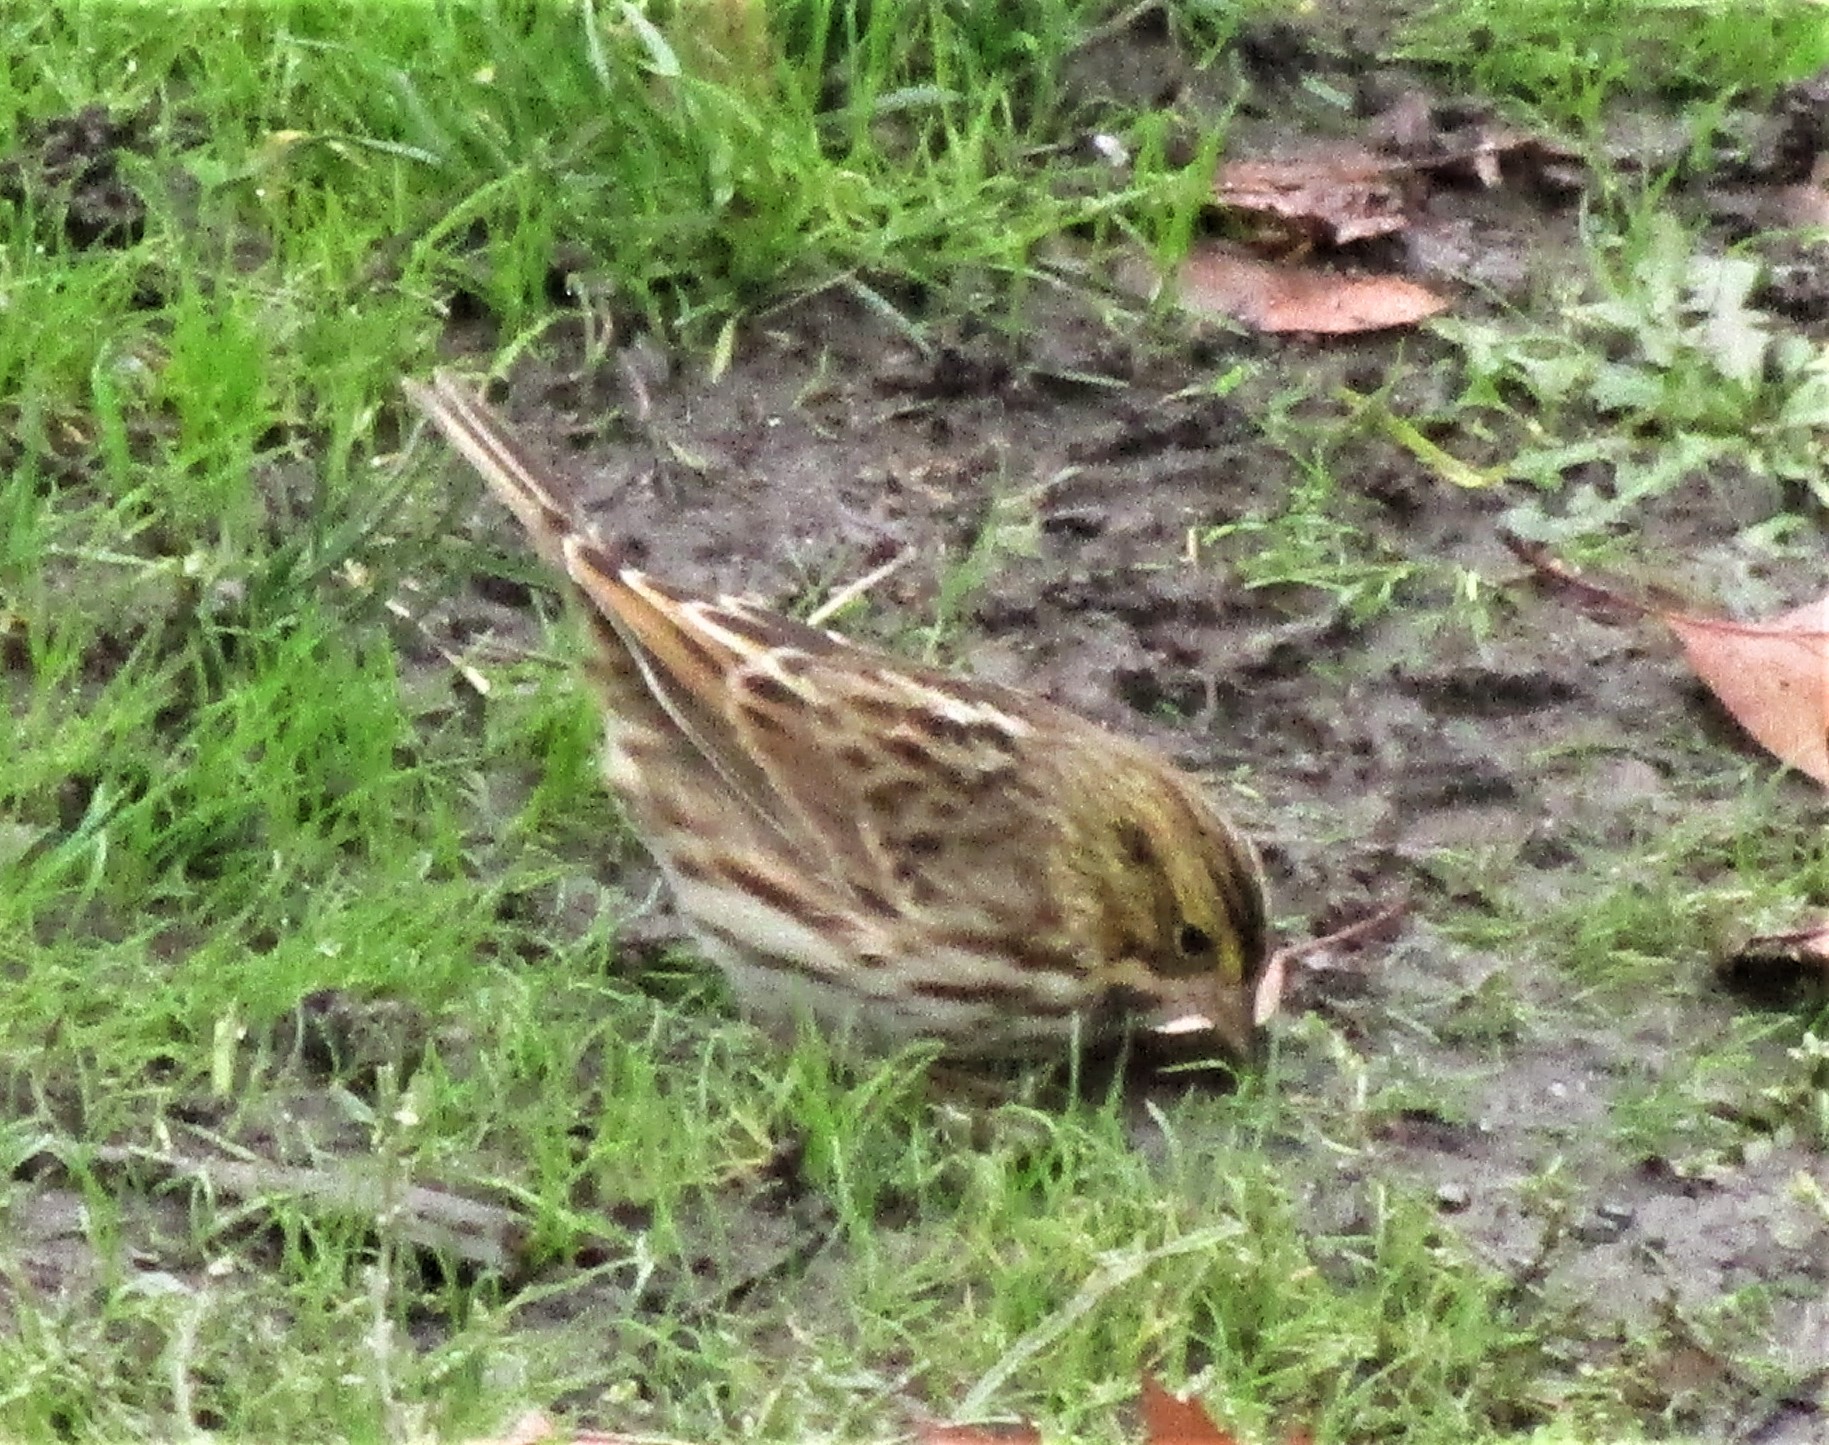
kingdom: Animalia
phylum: Chordata
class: Aves
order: Passeriformes
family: Passerellidae
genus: Passerculus
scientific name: Passerculus sandwichensis
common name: Savannah sparrow
